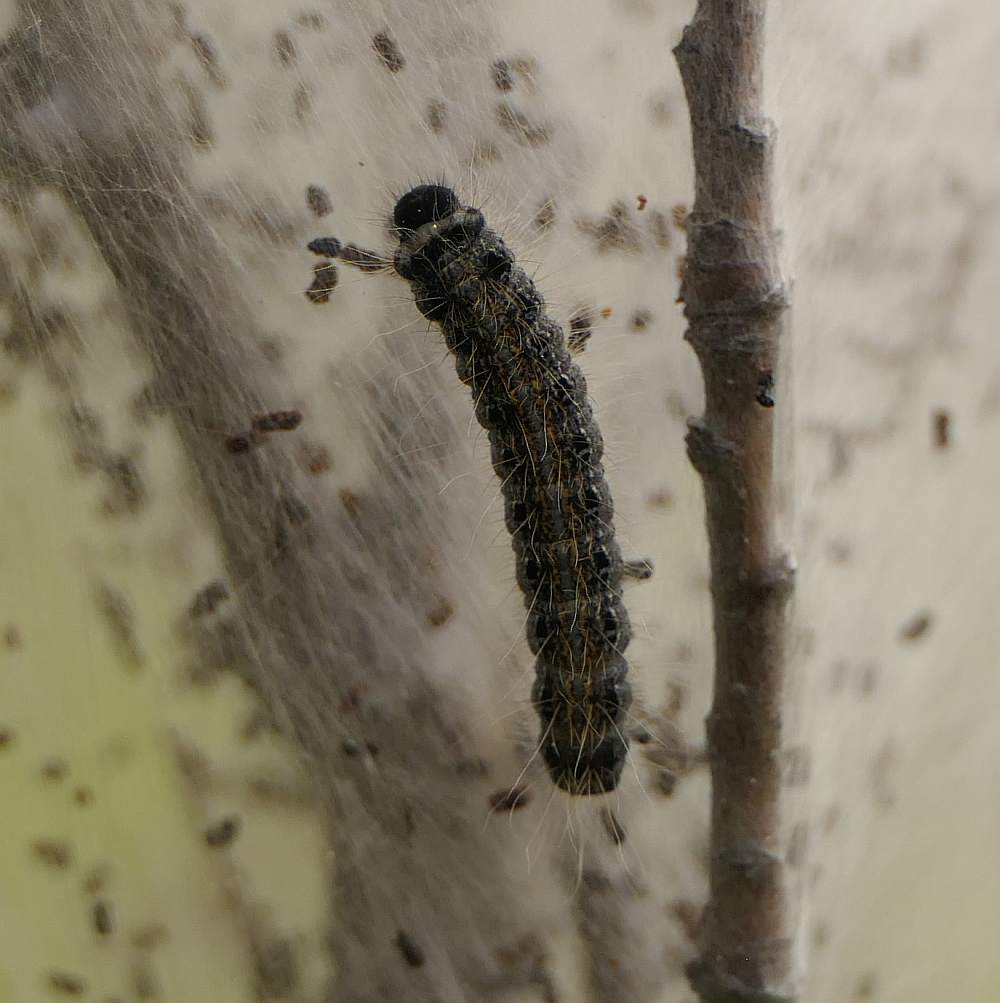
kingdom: Animalia
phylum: Arthropoda
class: Insecta
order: Lepidoptera
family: Lasiocampidae
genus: Malacosoma
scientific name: Malacosoma americana
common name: Eastern tent caterpillar moth
